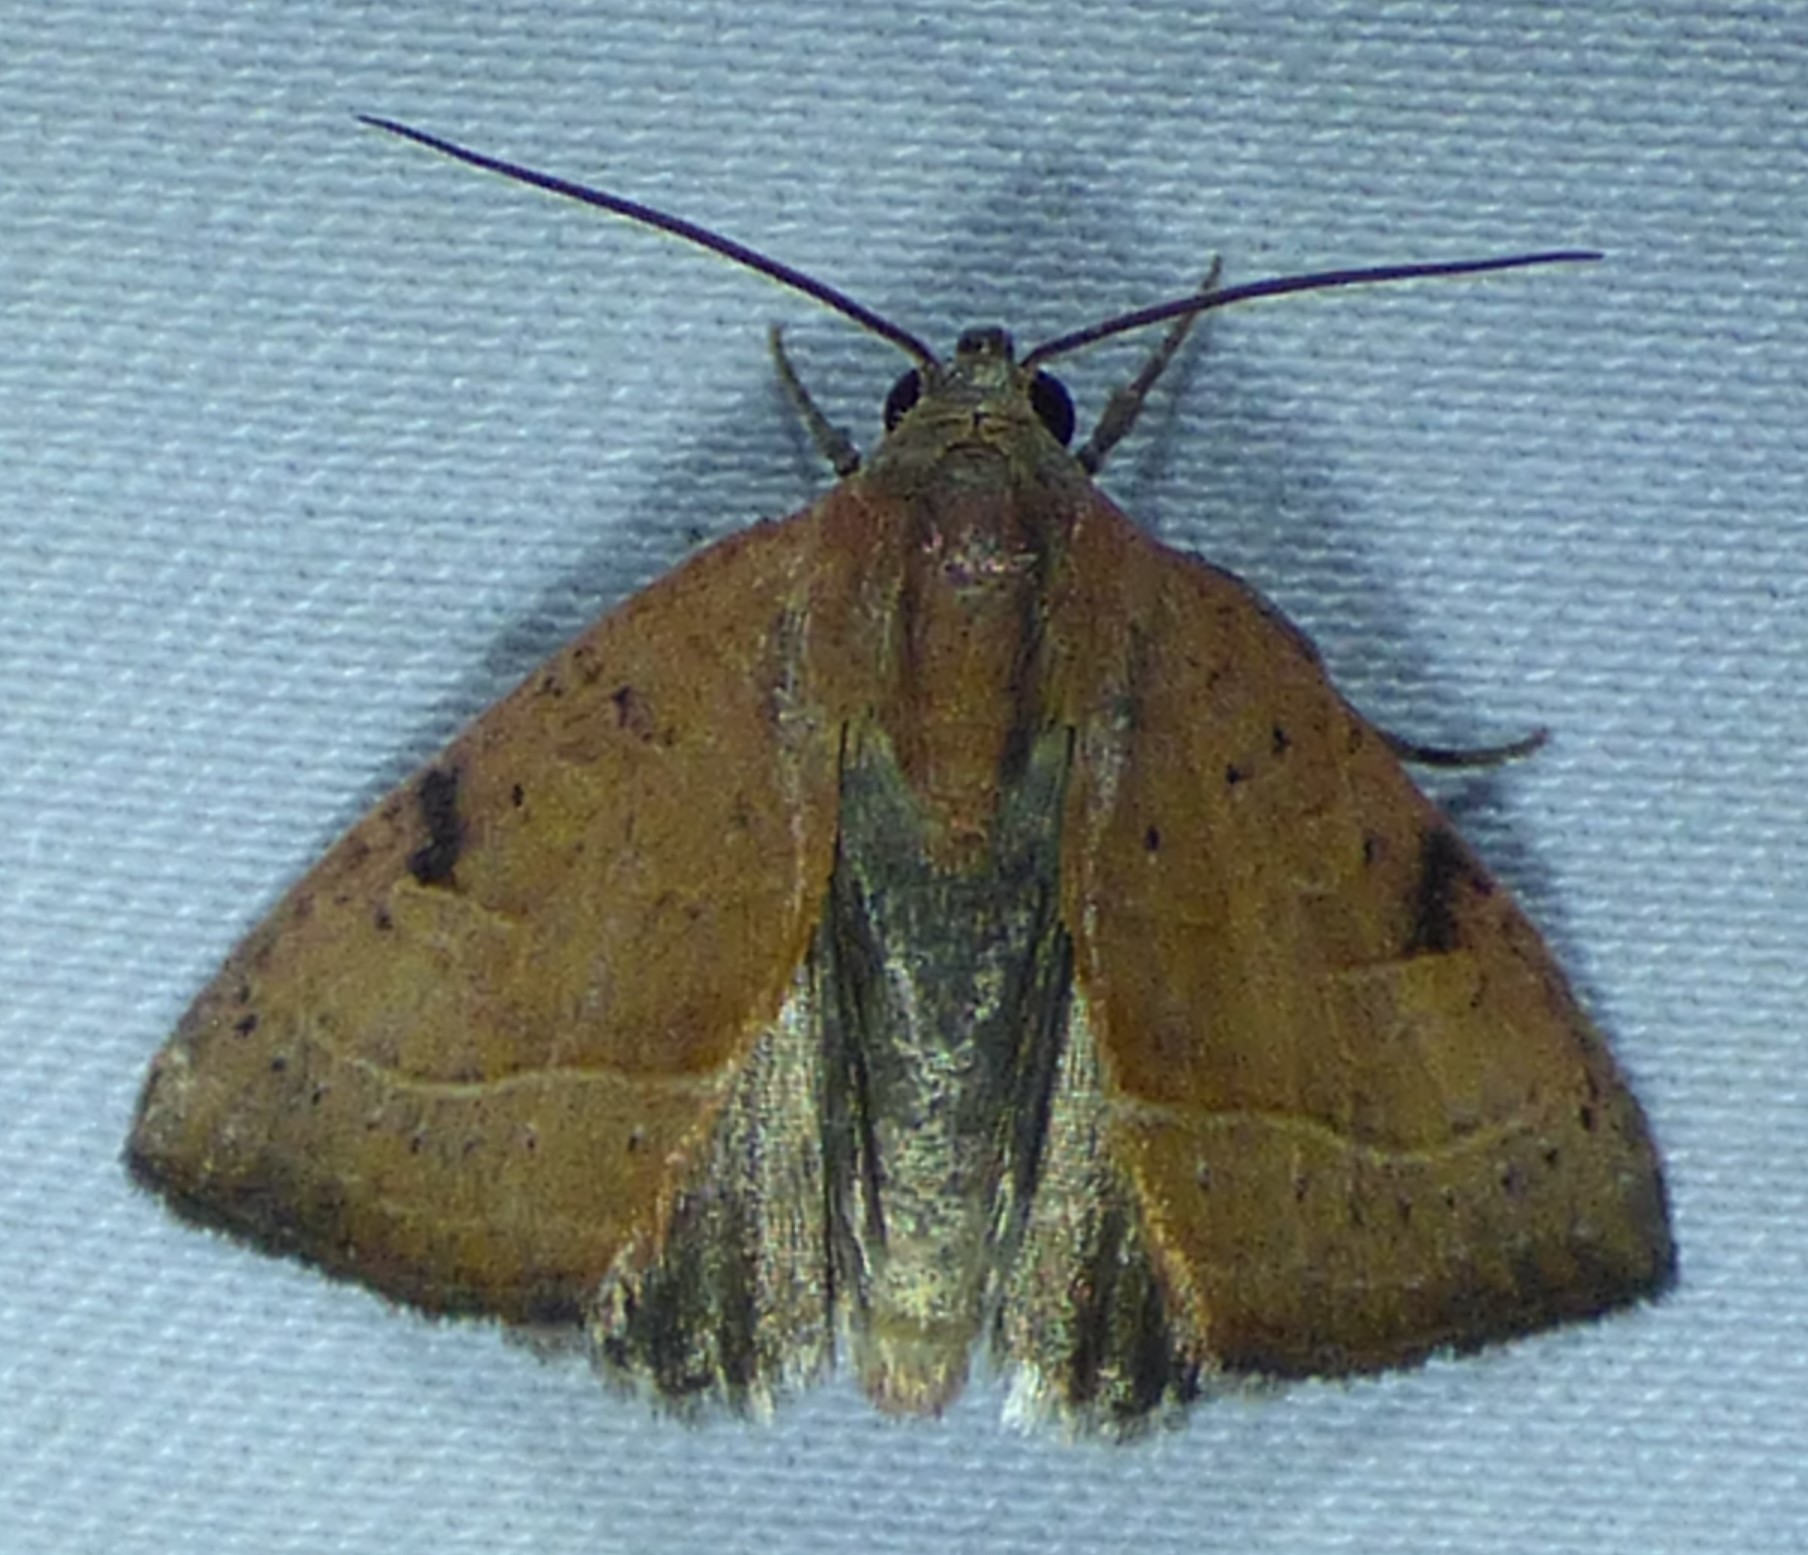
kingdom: Animalia
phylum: Arthropoda
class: Insecta
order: Lepidoptera
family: Noctuidae
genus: Galgula
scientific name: Galgula partita
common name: Wedgeling
